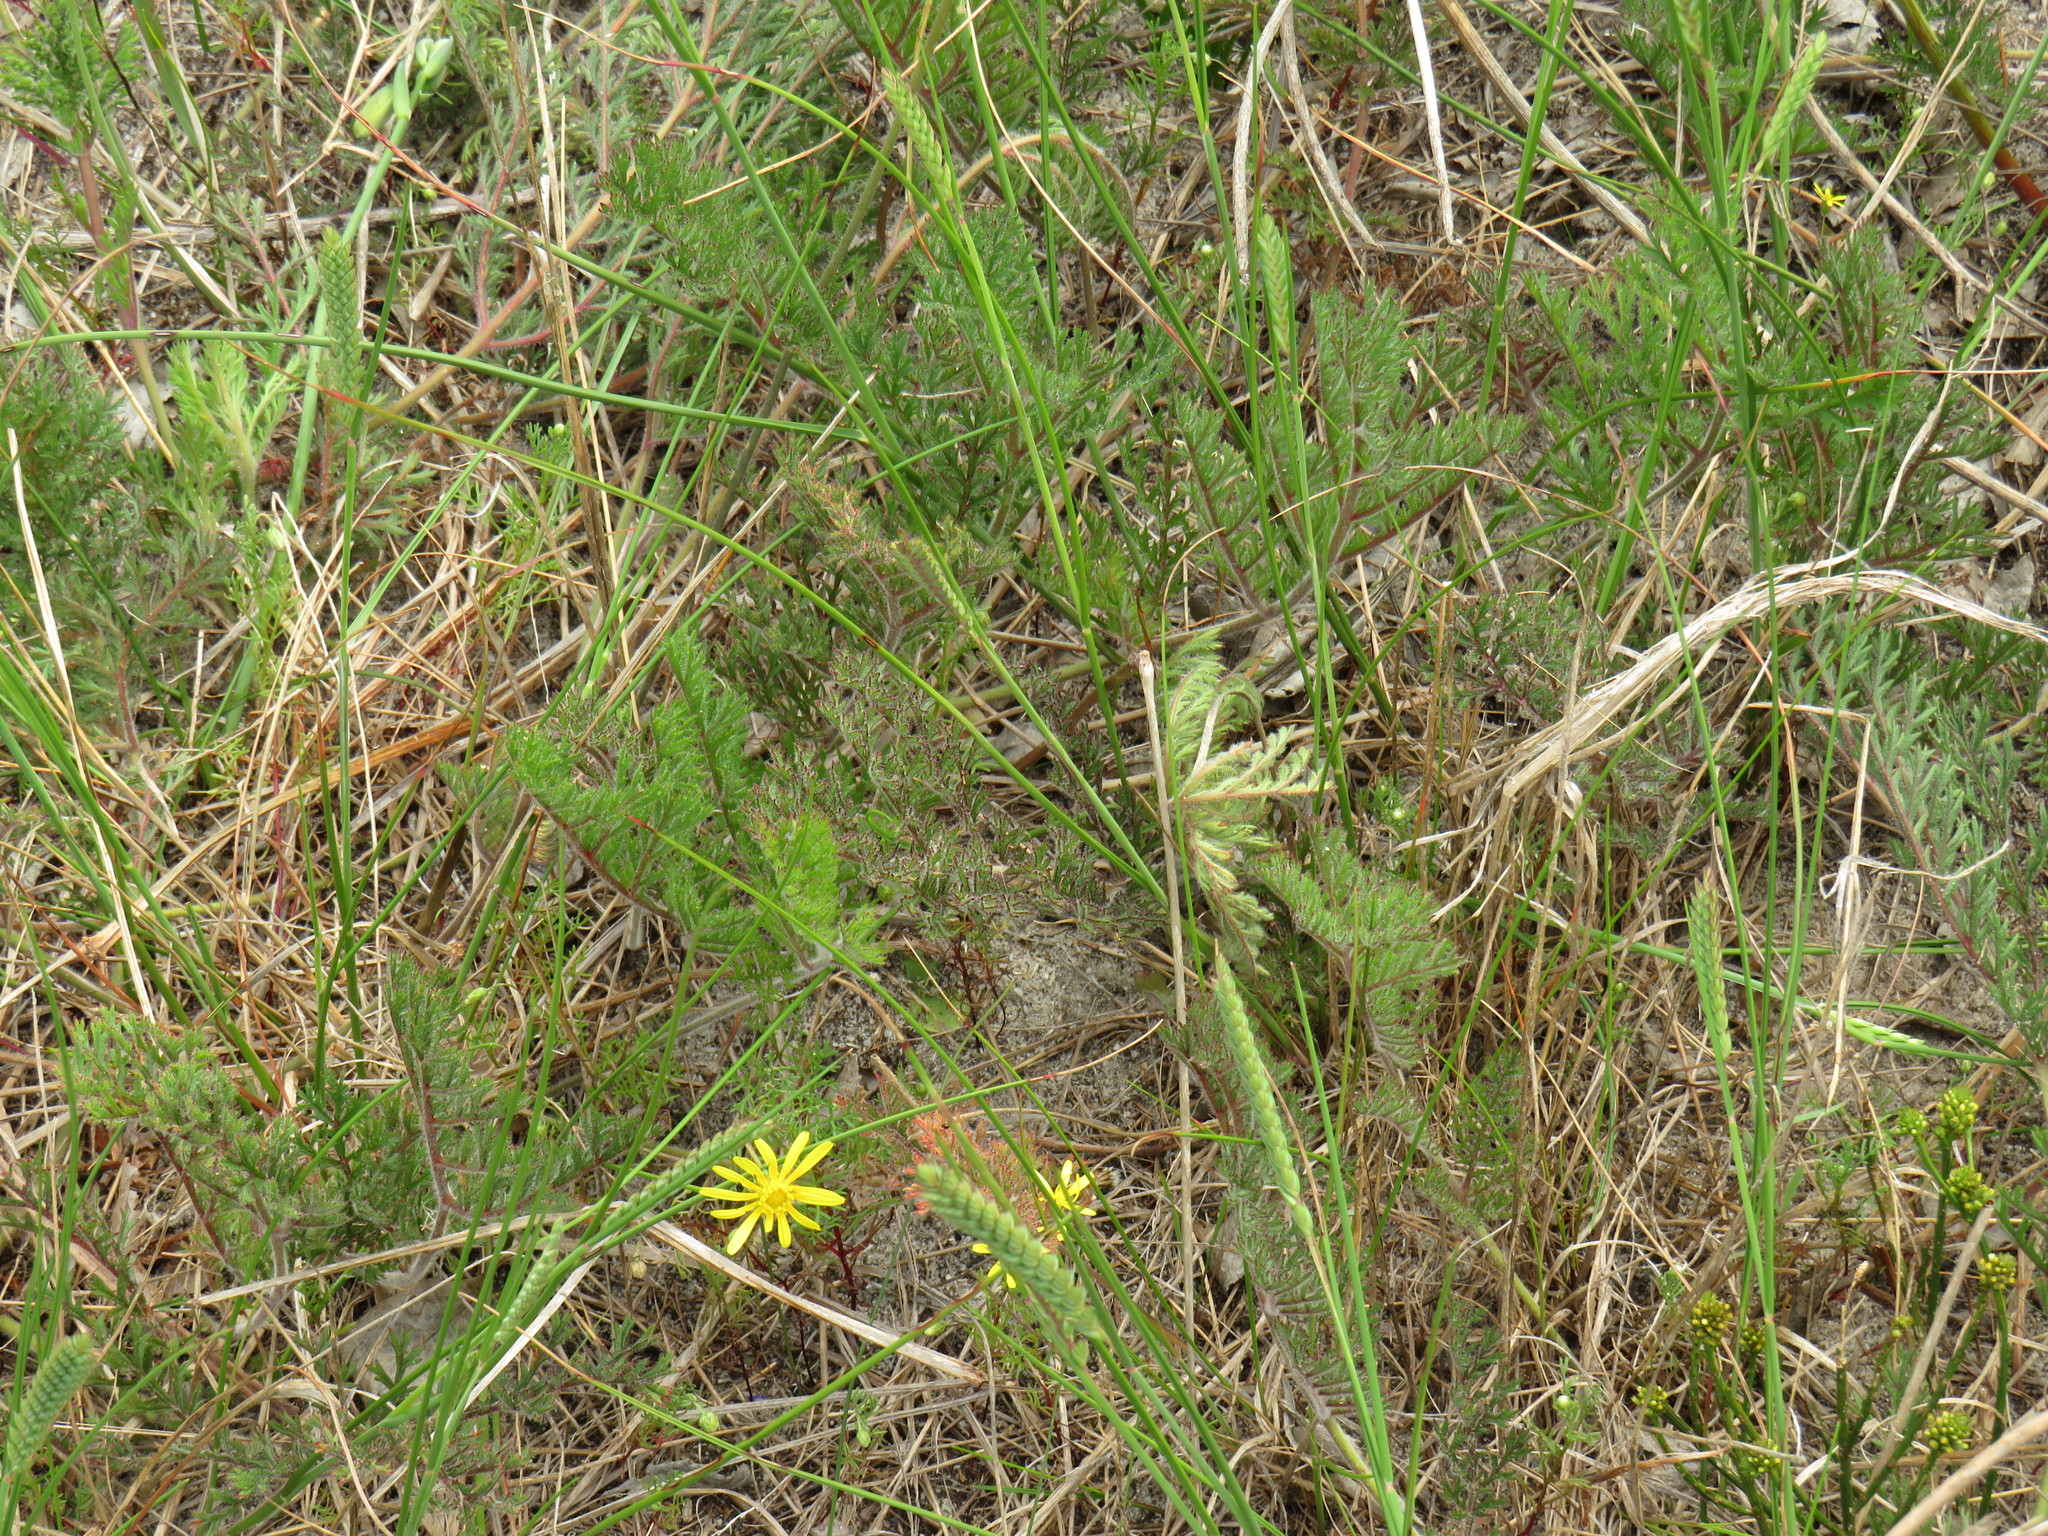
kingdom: Plantae
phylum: Tracheophyta
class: Magnoliopsida
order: Geraniales
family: Geraniaceae
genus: Pelargonium
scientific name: Pelargonium triste
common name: Night-scent pelargonium
